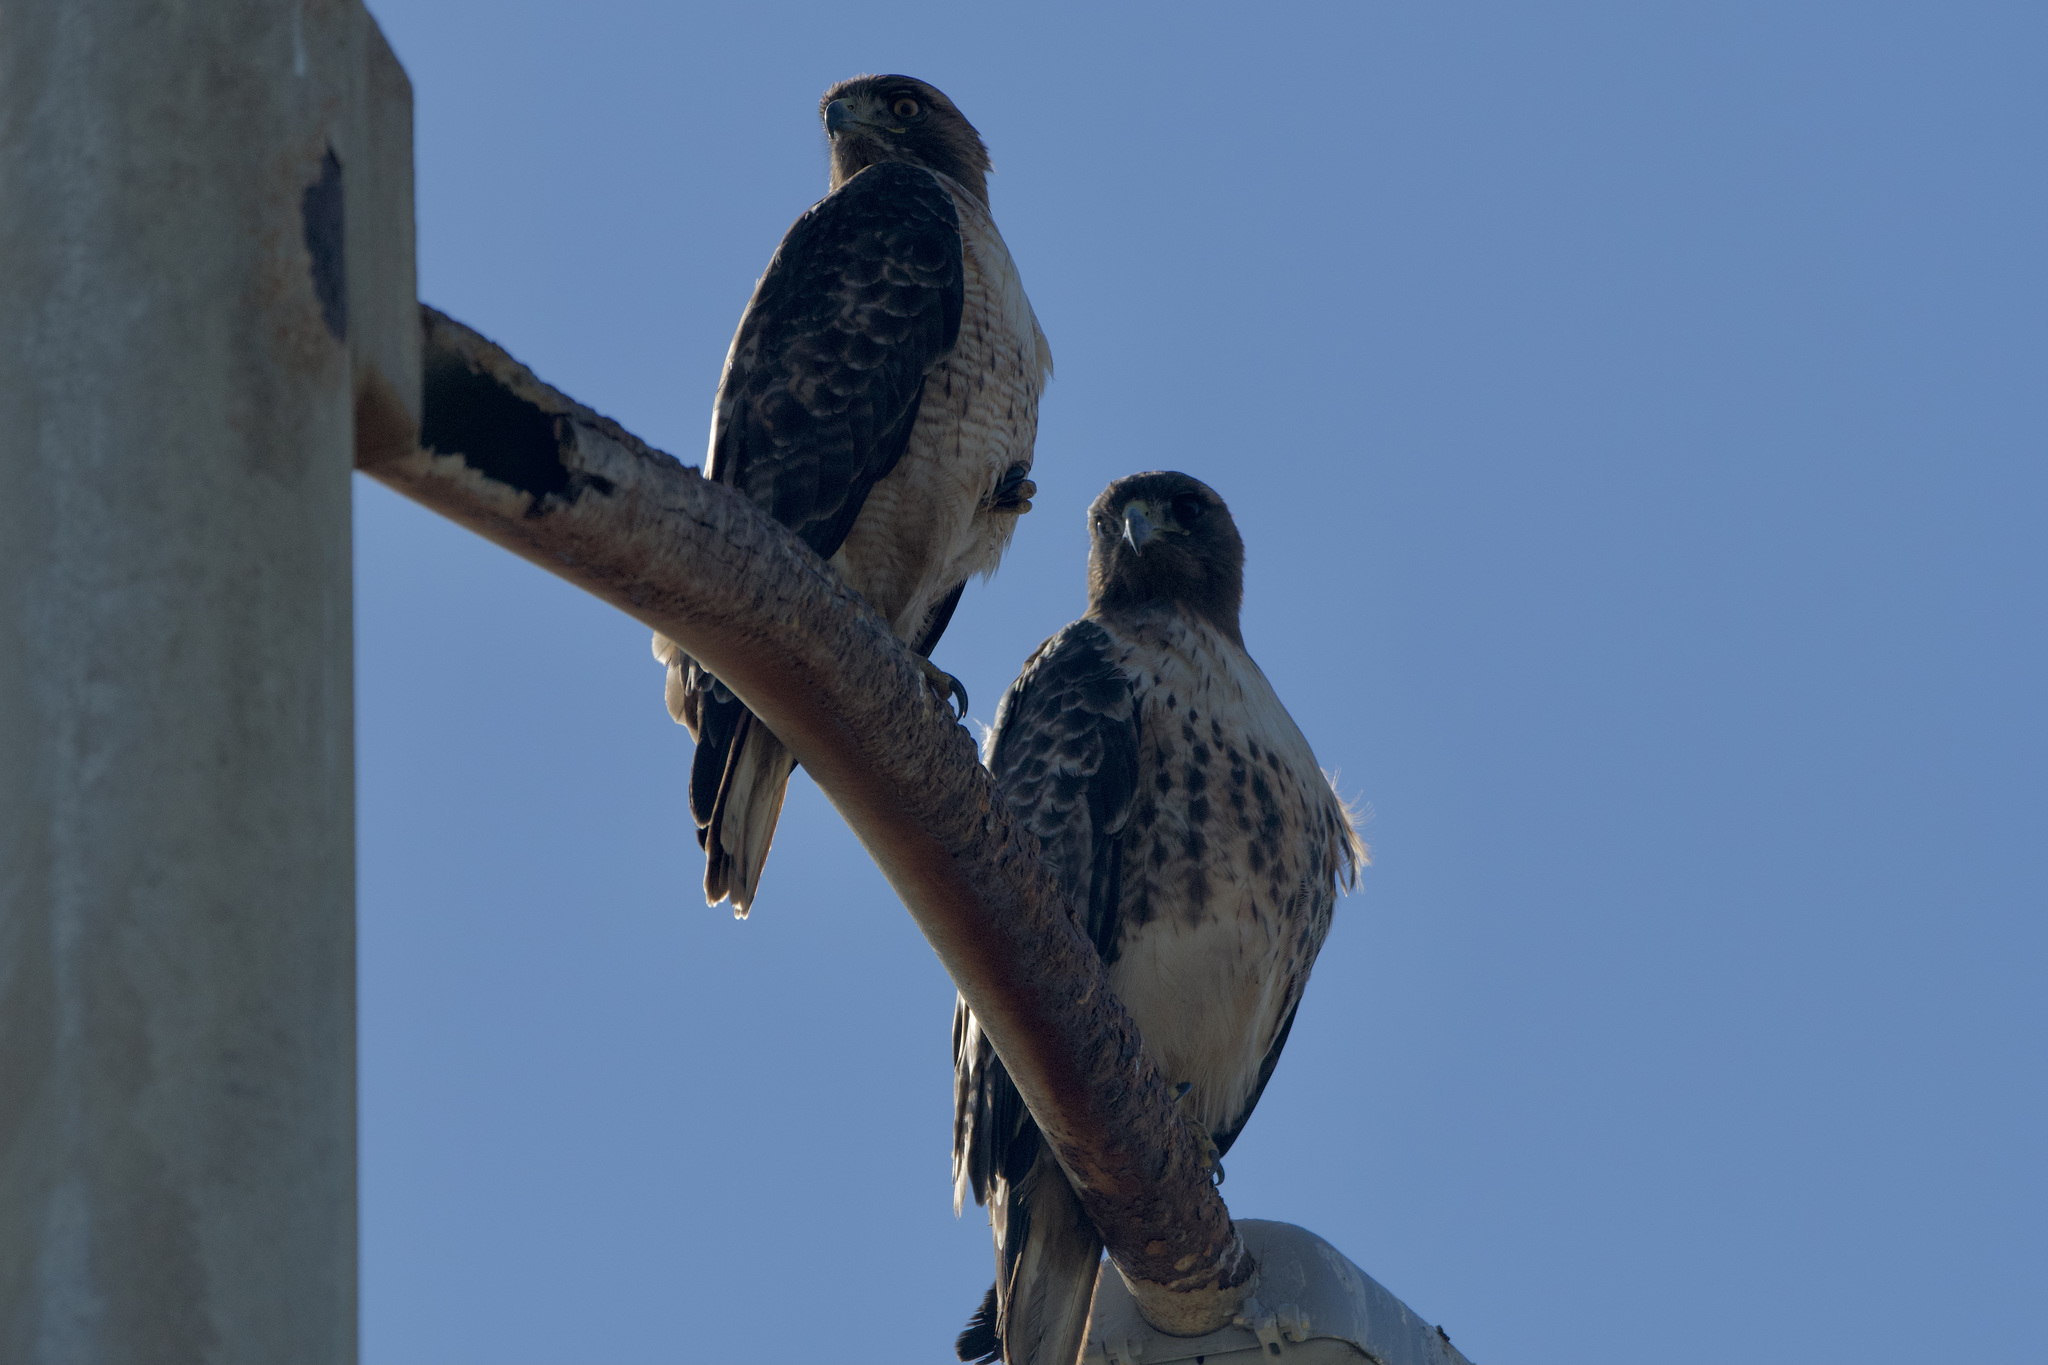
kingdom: Animalia
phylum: Chordata
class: Aves
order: Accipitriformes
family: Accipitridae
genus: Buteo
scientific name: Buteo jamaicensis
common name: Red-tailed hawk
